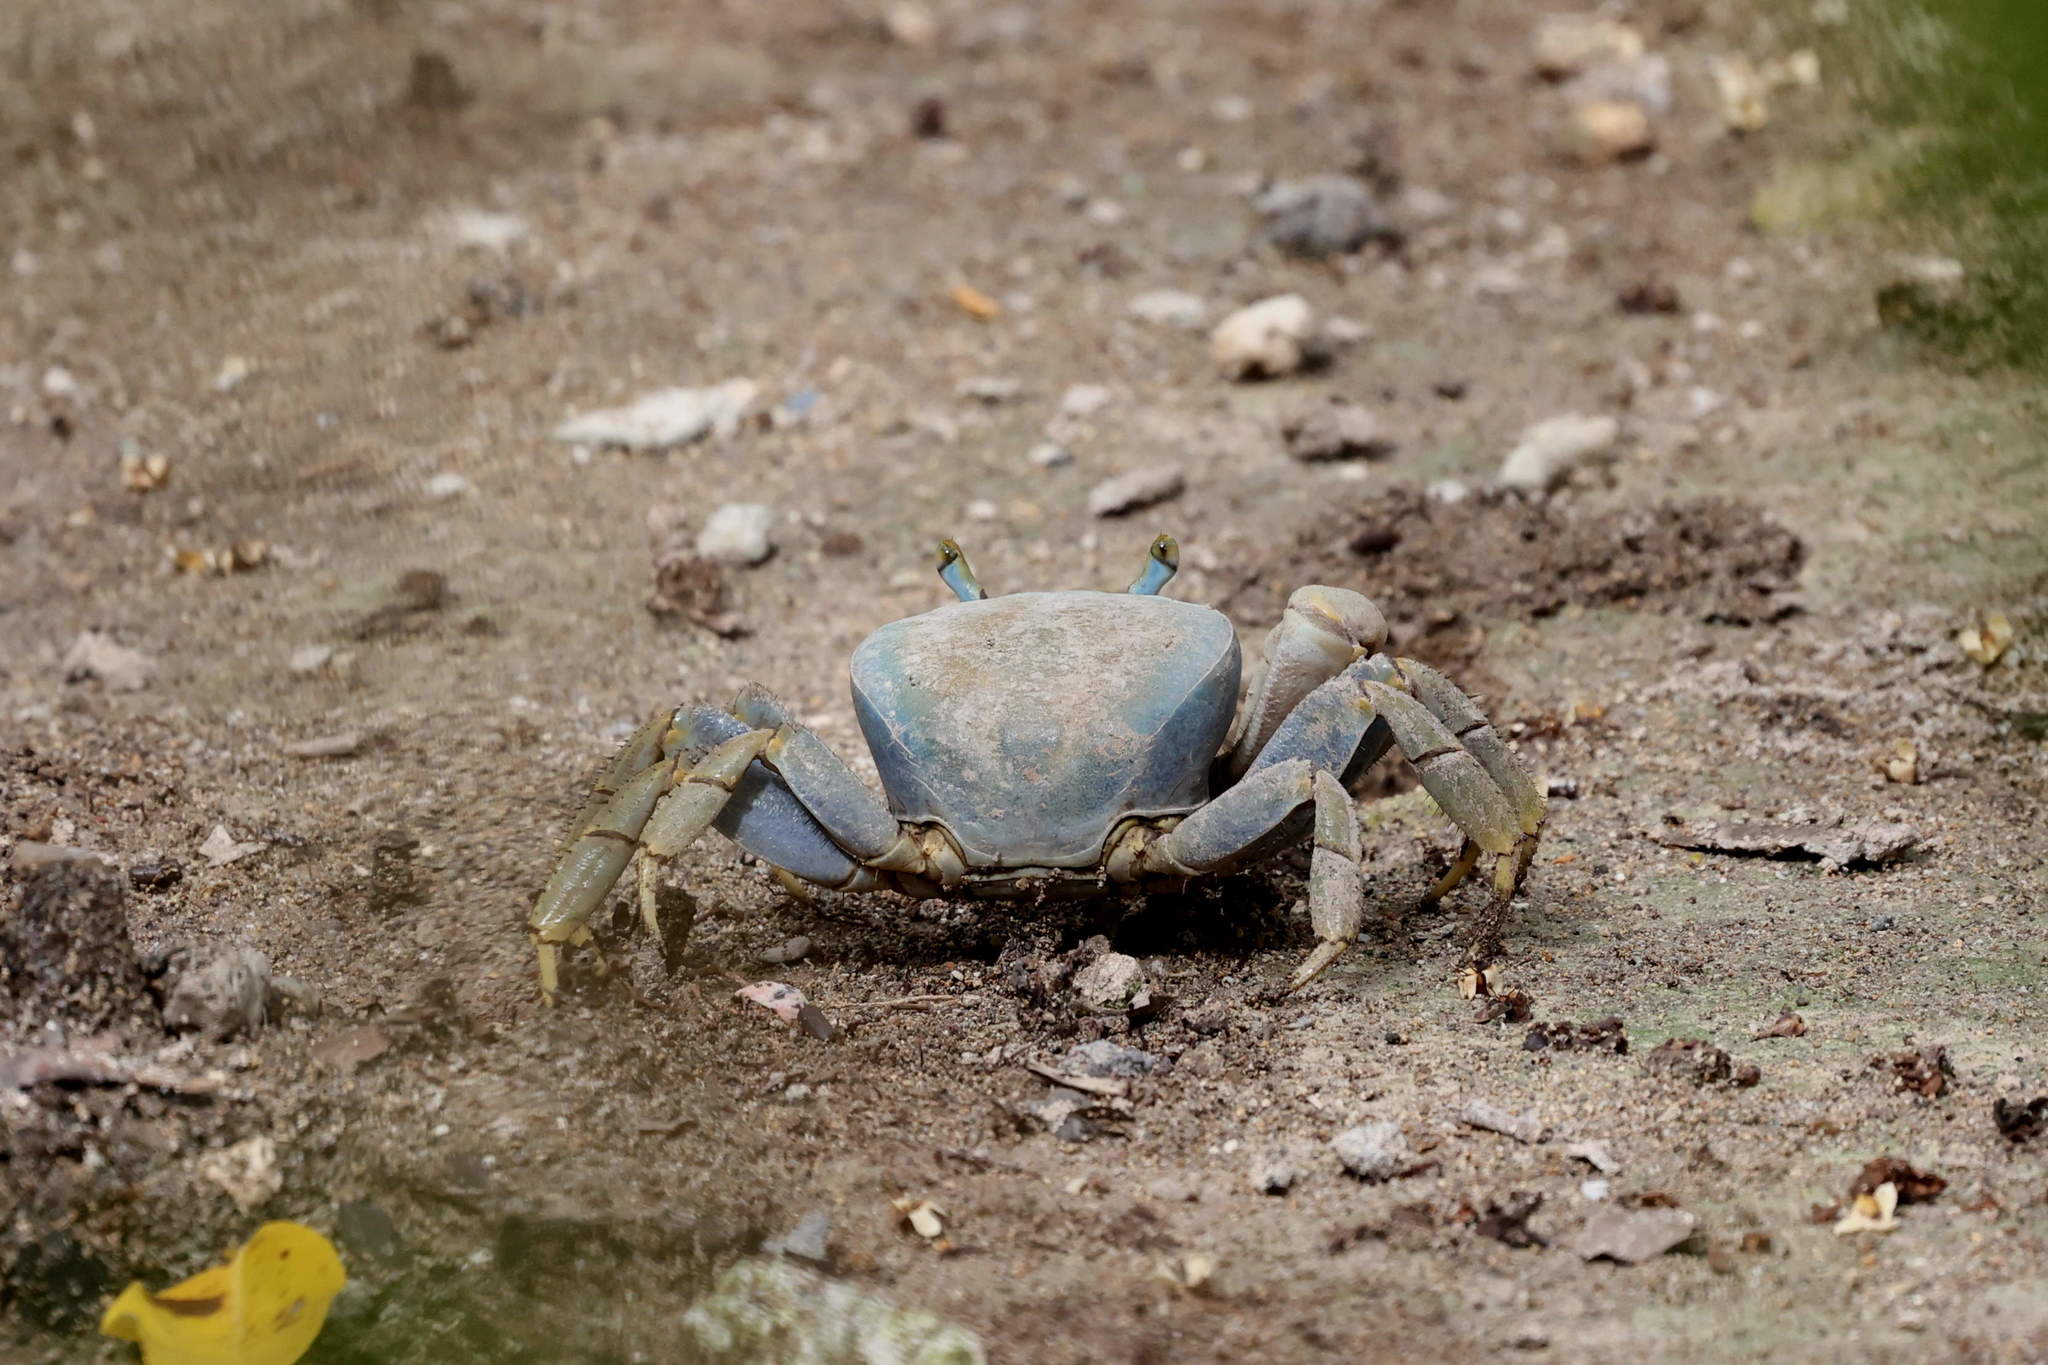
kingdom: Animalia
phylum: Arthropoda
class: Malacostraca
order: Decapoda
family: Gecarcinidae
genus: Cardisoma
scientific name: Cardisoma guanhumi
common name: Great land crab
